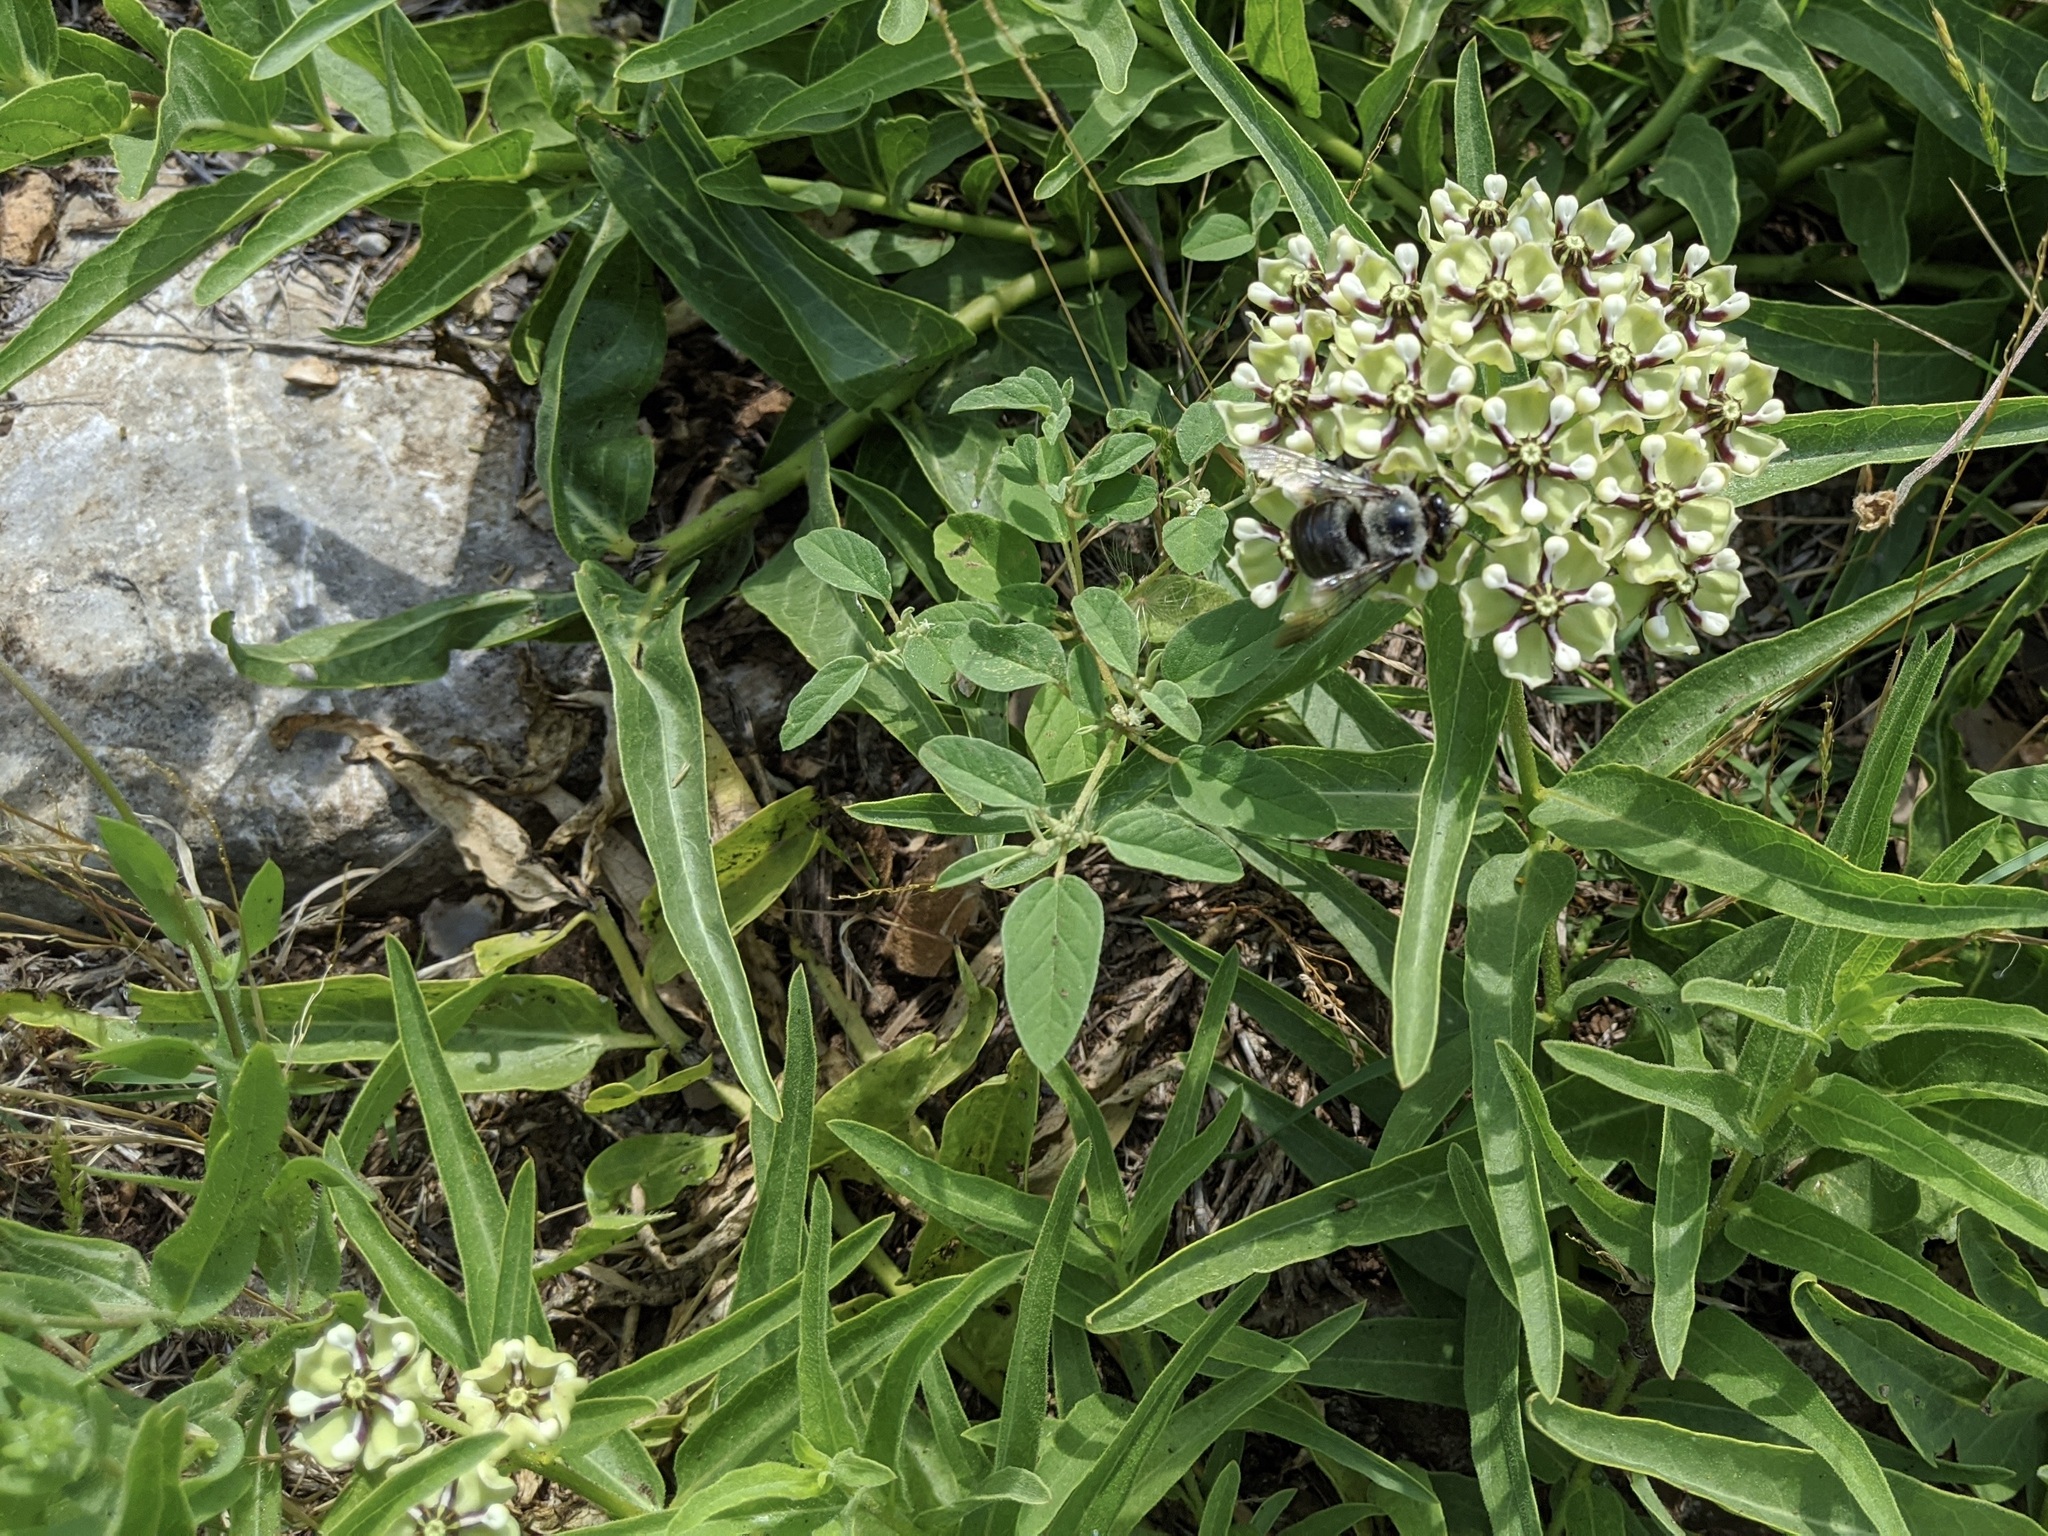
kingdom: Animalia
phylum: Arthropoda
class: Insecta
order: Hymenoptera
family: Apidae
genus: Xylocopa
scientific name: Xylocopa virginica
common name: Carpenter bee
